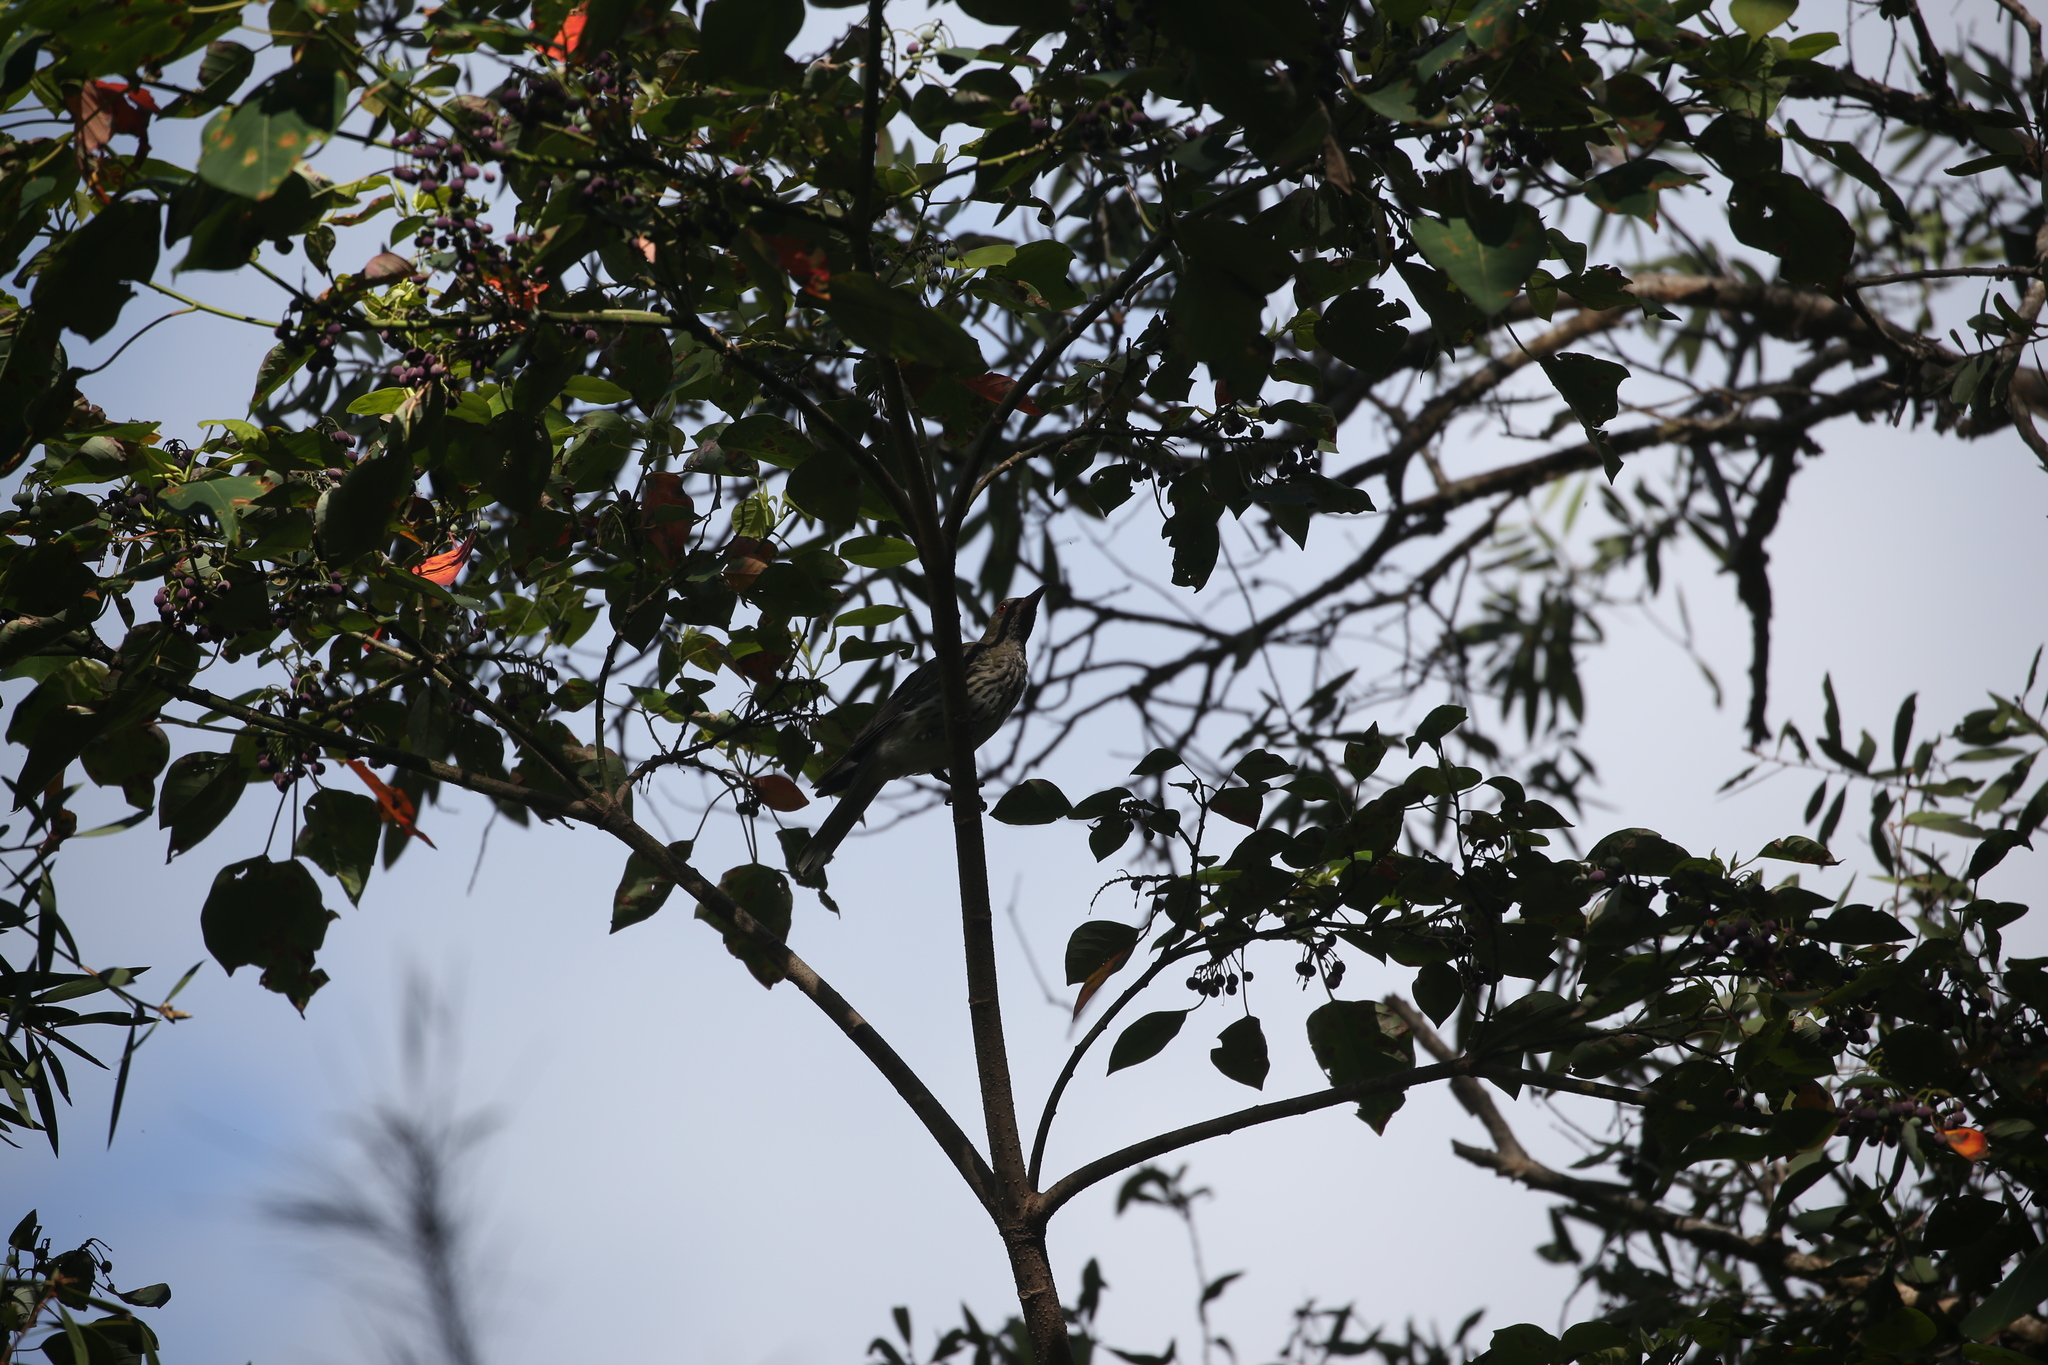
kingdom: Animalia
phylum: Chordata
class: Aves
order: Passeriformes
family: Oriolidae
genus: Oriolus
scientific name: Oriolus sagittatus
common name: Olive-backed oriole
